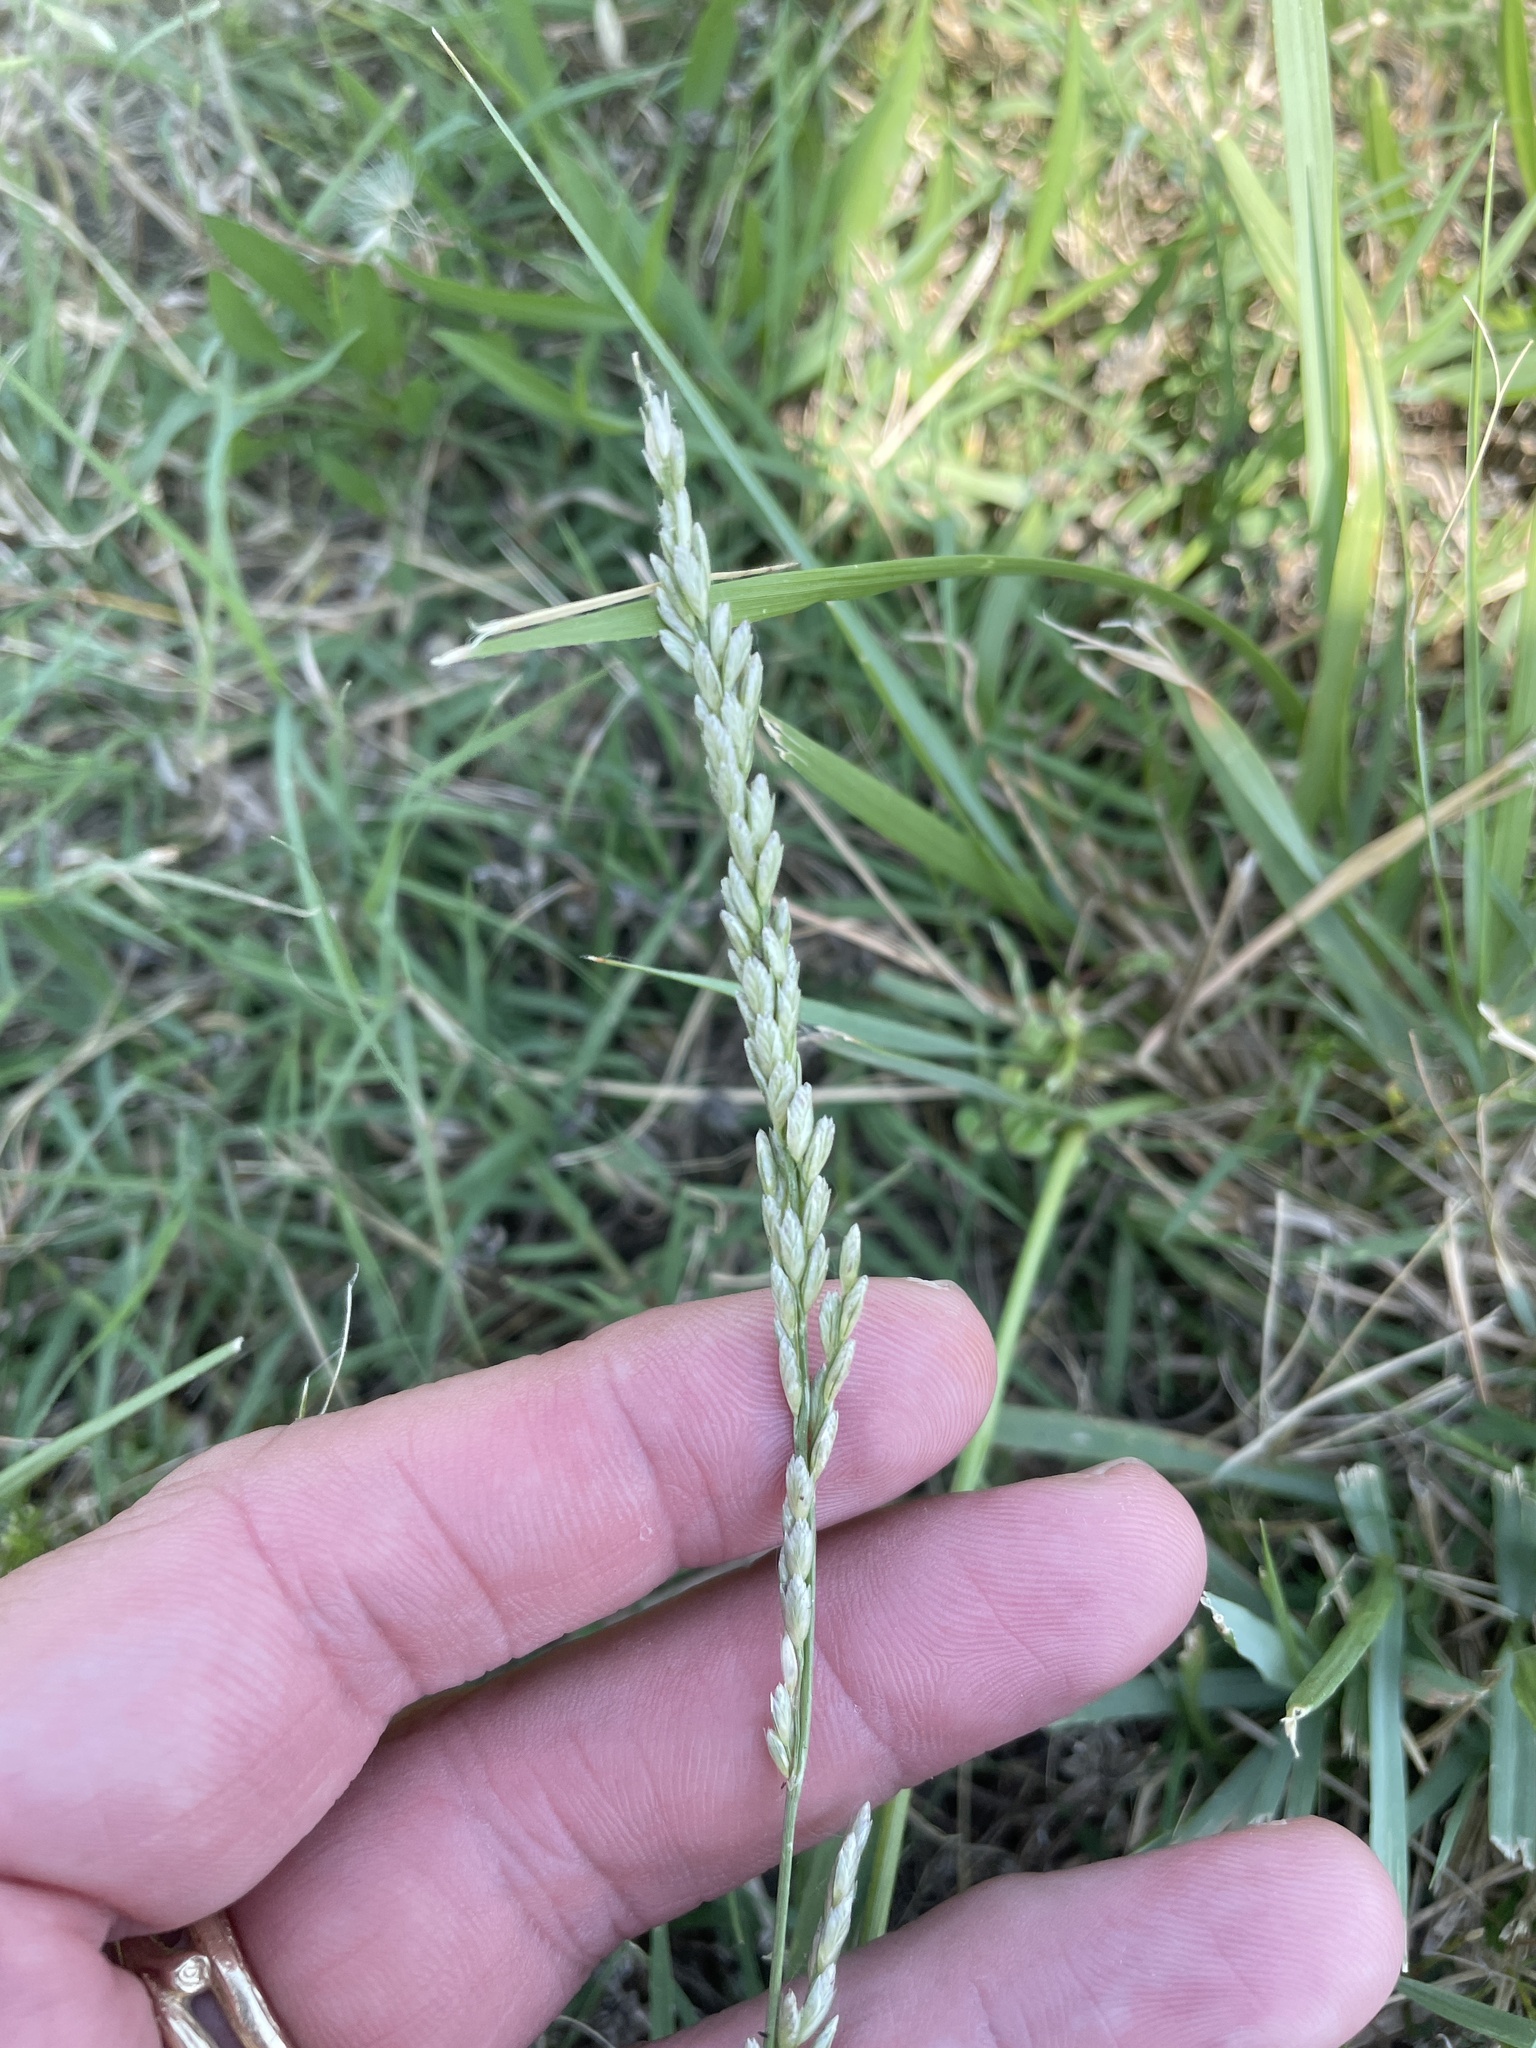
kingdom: Plantae
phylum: Tracheophyta
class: Liliopsida
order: Poales
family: Poaceae
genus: Tridens
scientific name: Tridens albescens
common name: White tridens
